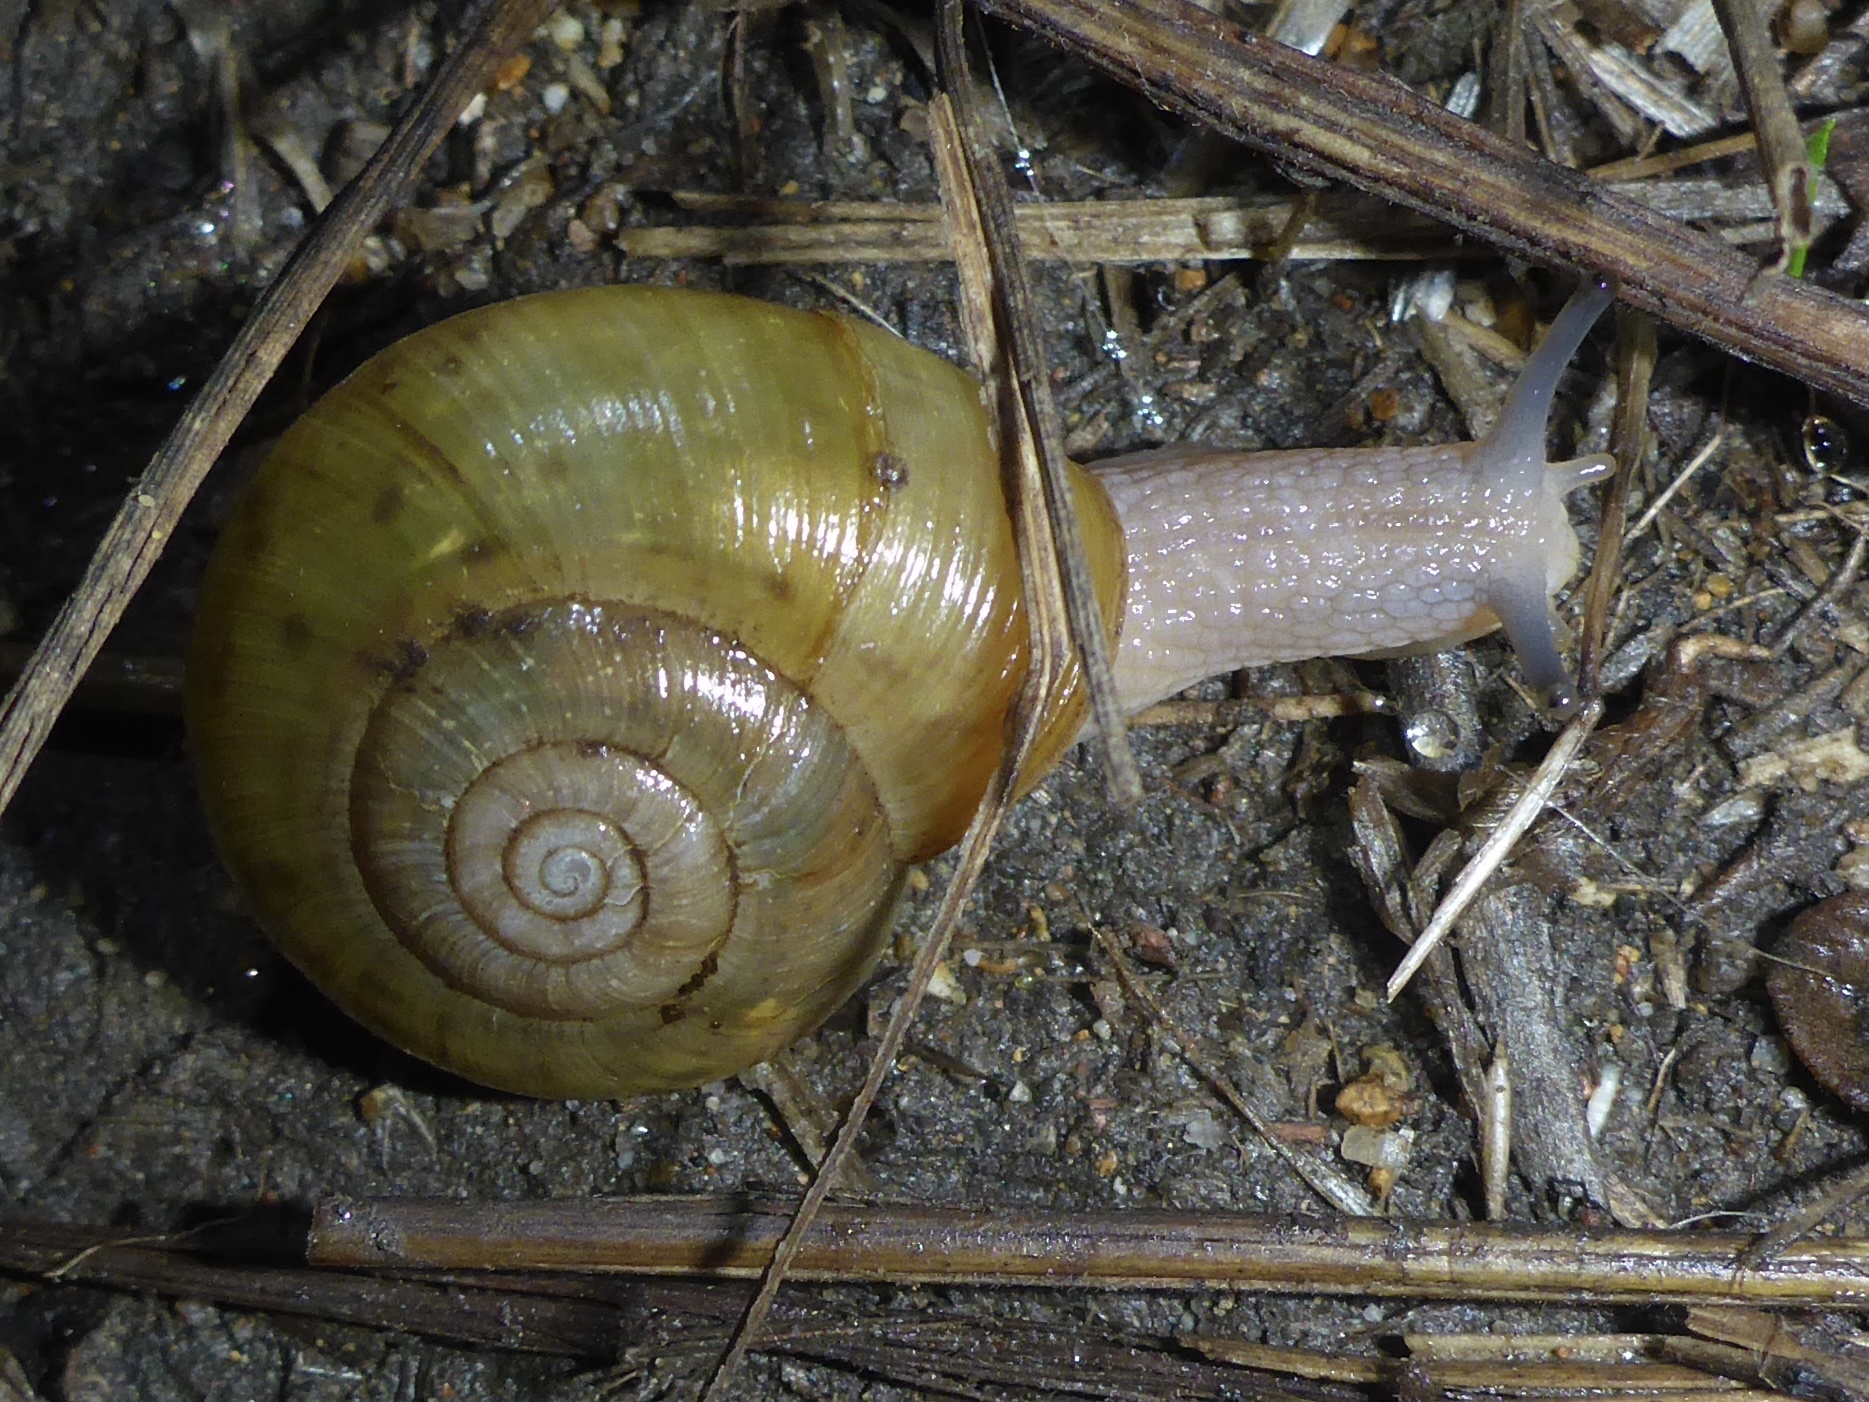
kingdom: Animalia
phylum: Mollusca
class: Gastropoda
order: Stylommatophora
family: Haplotrematidae
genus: Haplotrema
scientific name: Haplotrema minimum
